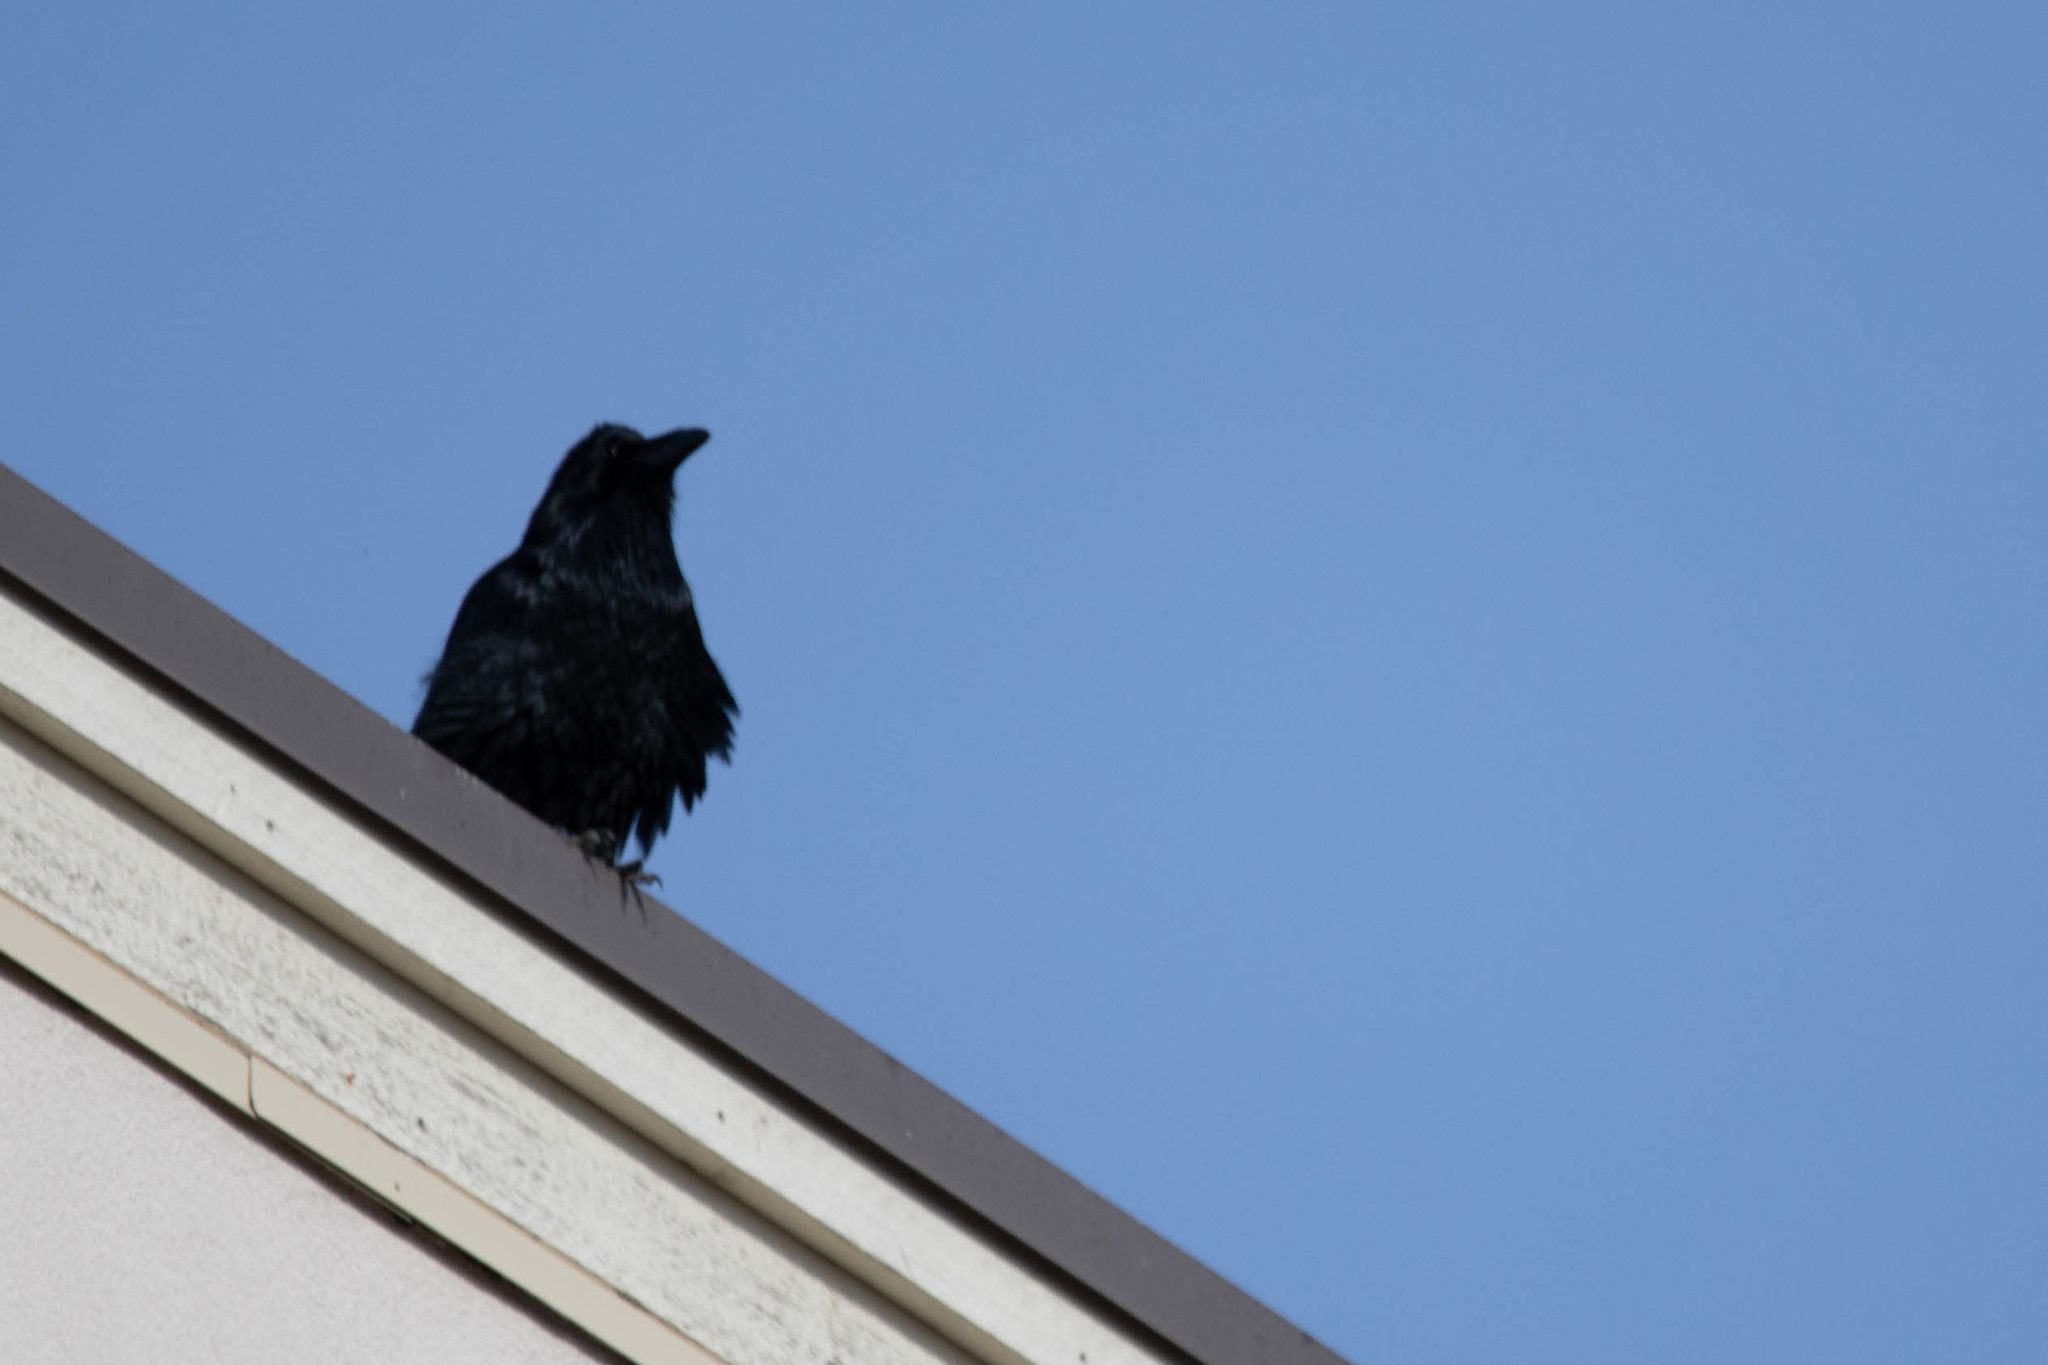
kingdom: Animalia
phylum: Chordata
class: Aves
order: Passeriformes
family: Corvidae
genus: Corvus
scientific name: Corvus corax
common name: Common raven
